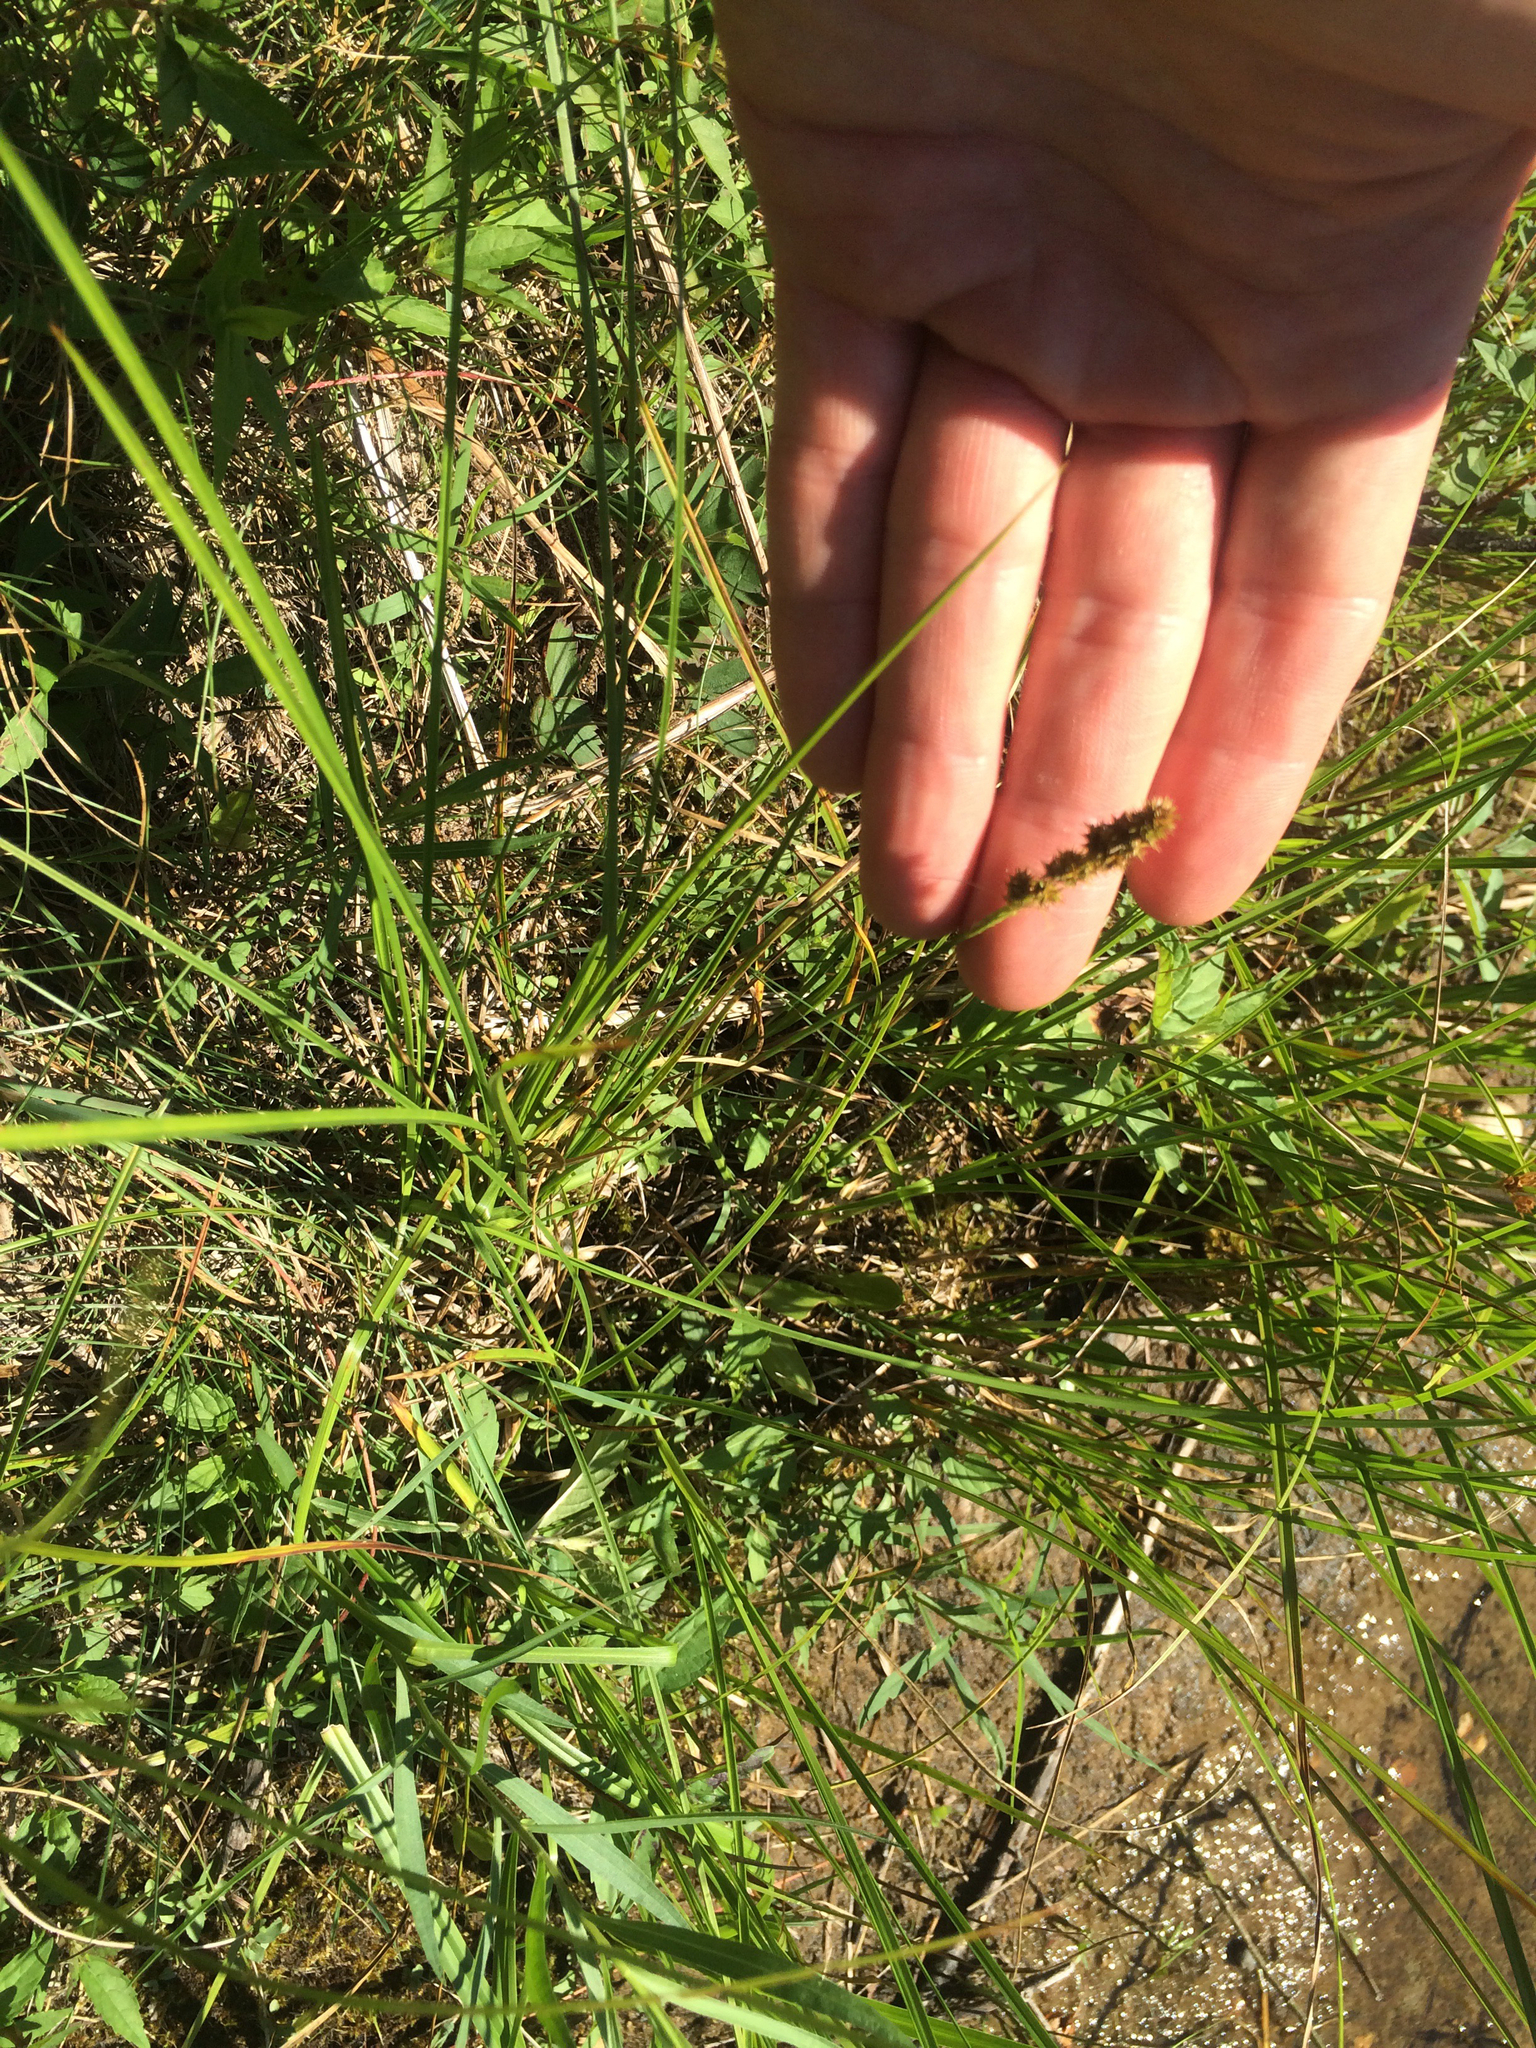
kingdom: Plantae
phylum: Tracheophyta
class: Liliopsida
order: Poales
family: Cyperaceae
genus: Carex
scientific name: Carex vulpinoidea
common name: American fox-sedge
